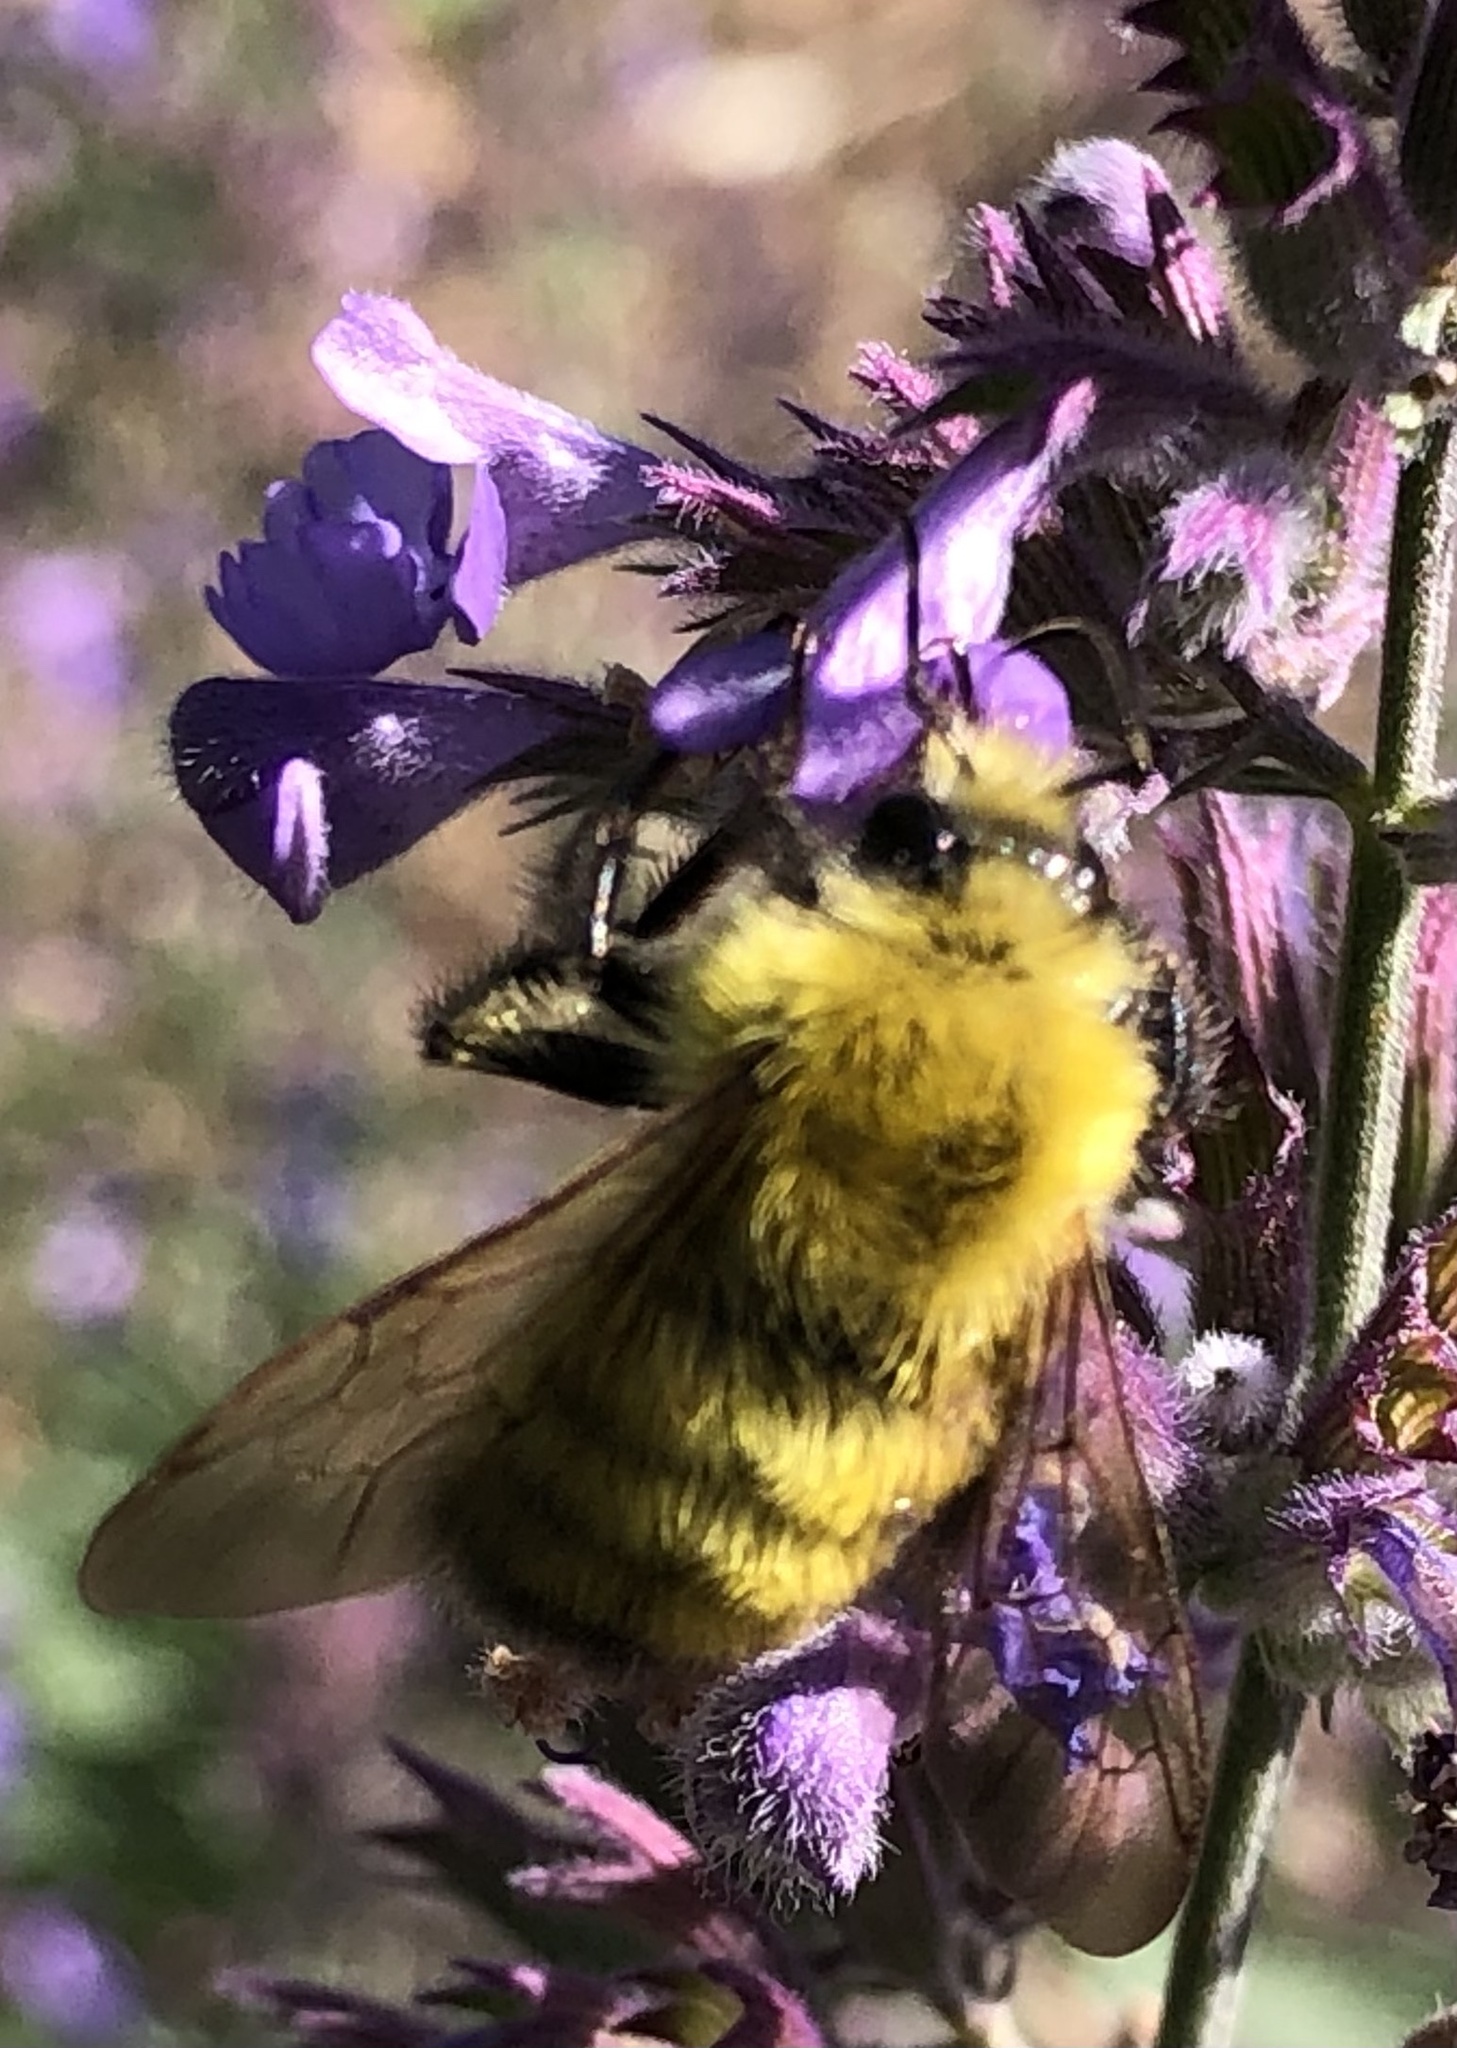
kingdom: Animalia
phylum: Arthropoda
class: Insecta
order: Hymenoptera
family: Apidae
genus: Bombus
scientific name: Bombus perplexus
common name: Confusing bumble bee
